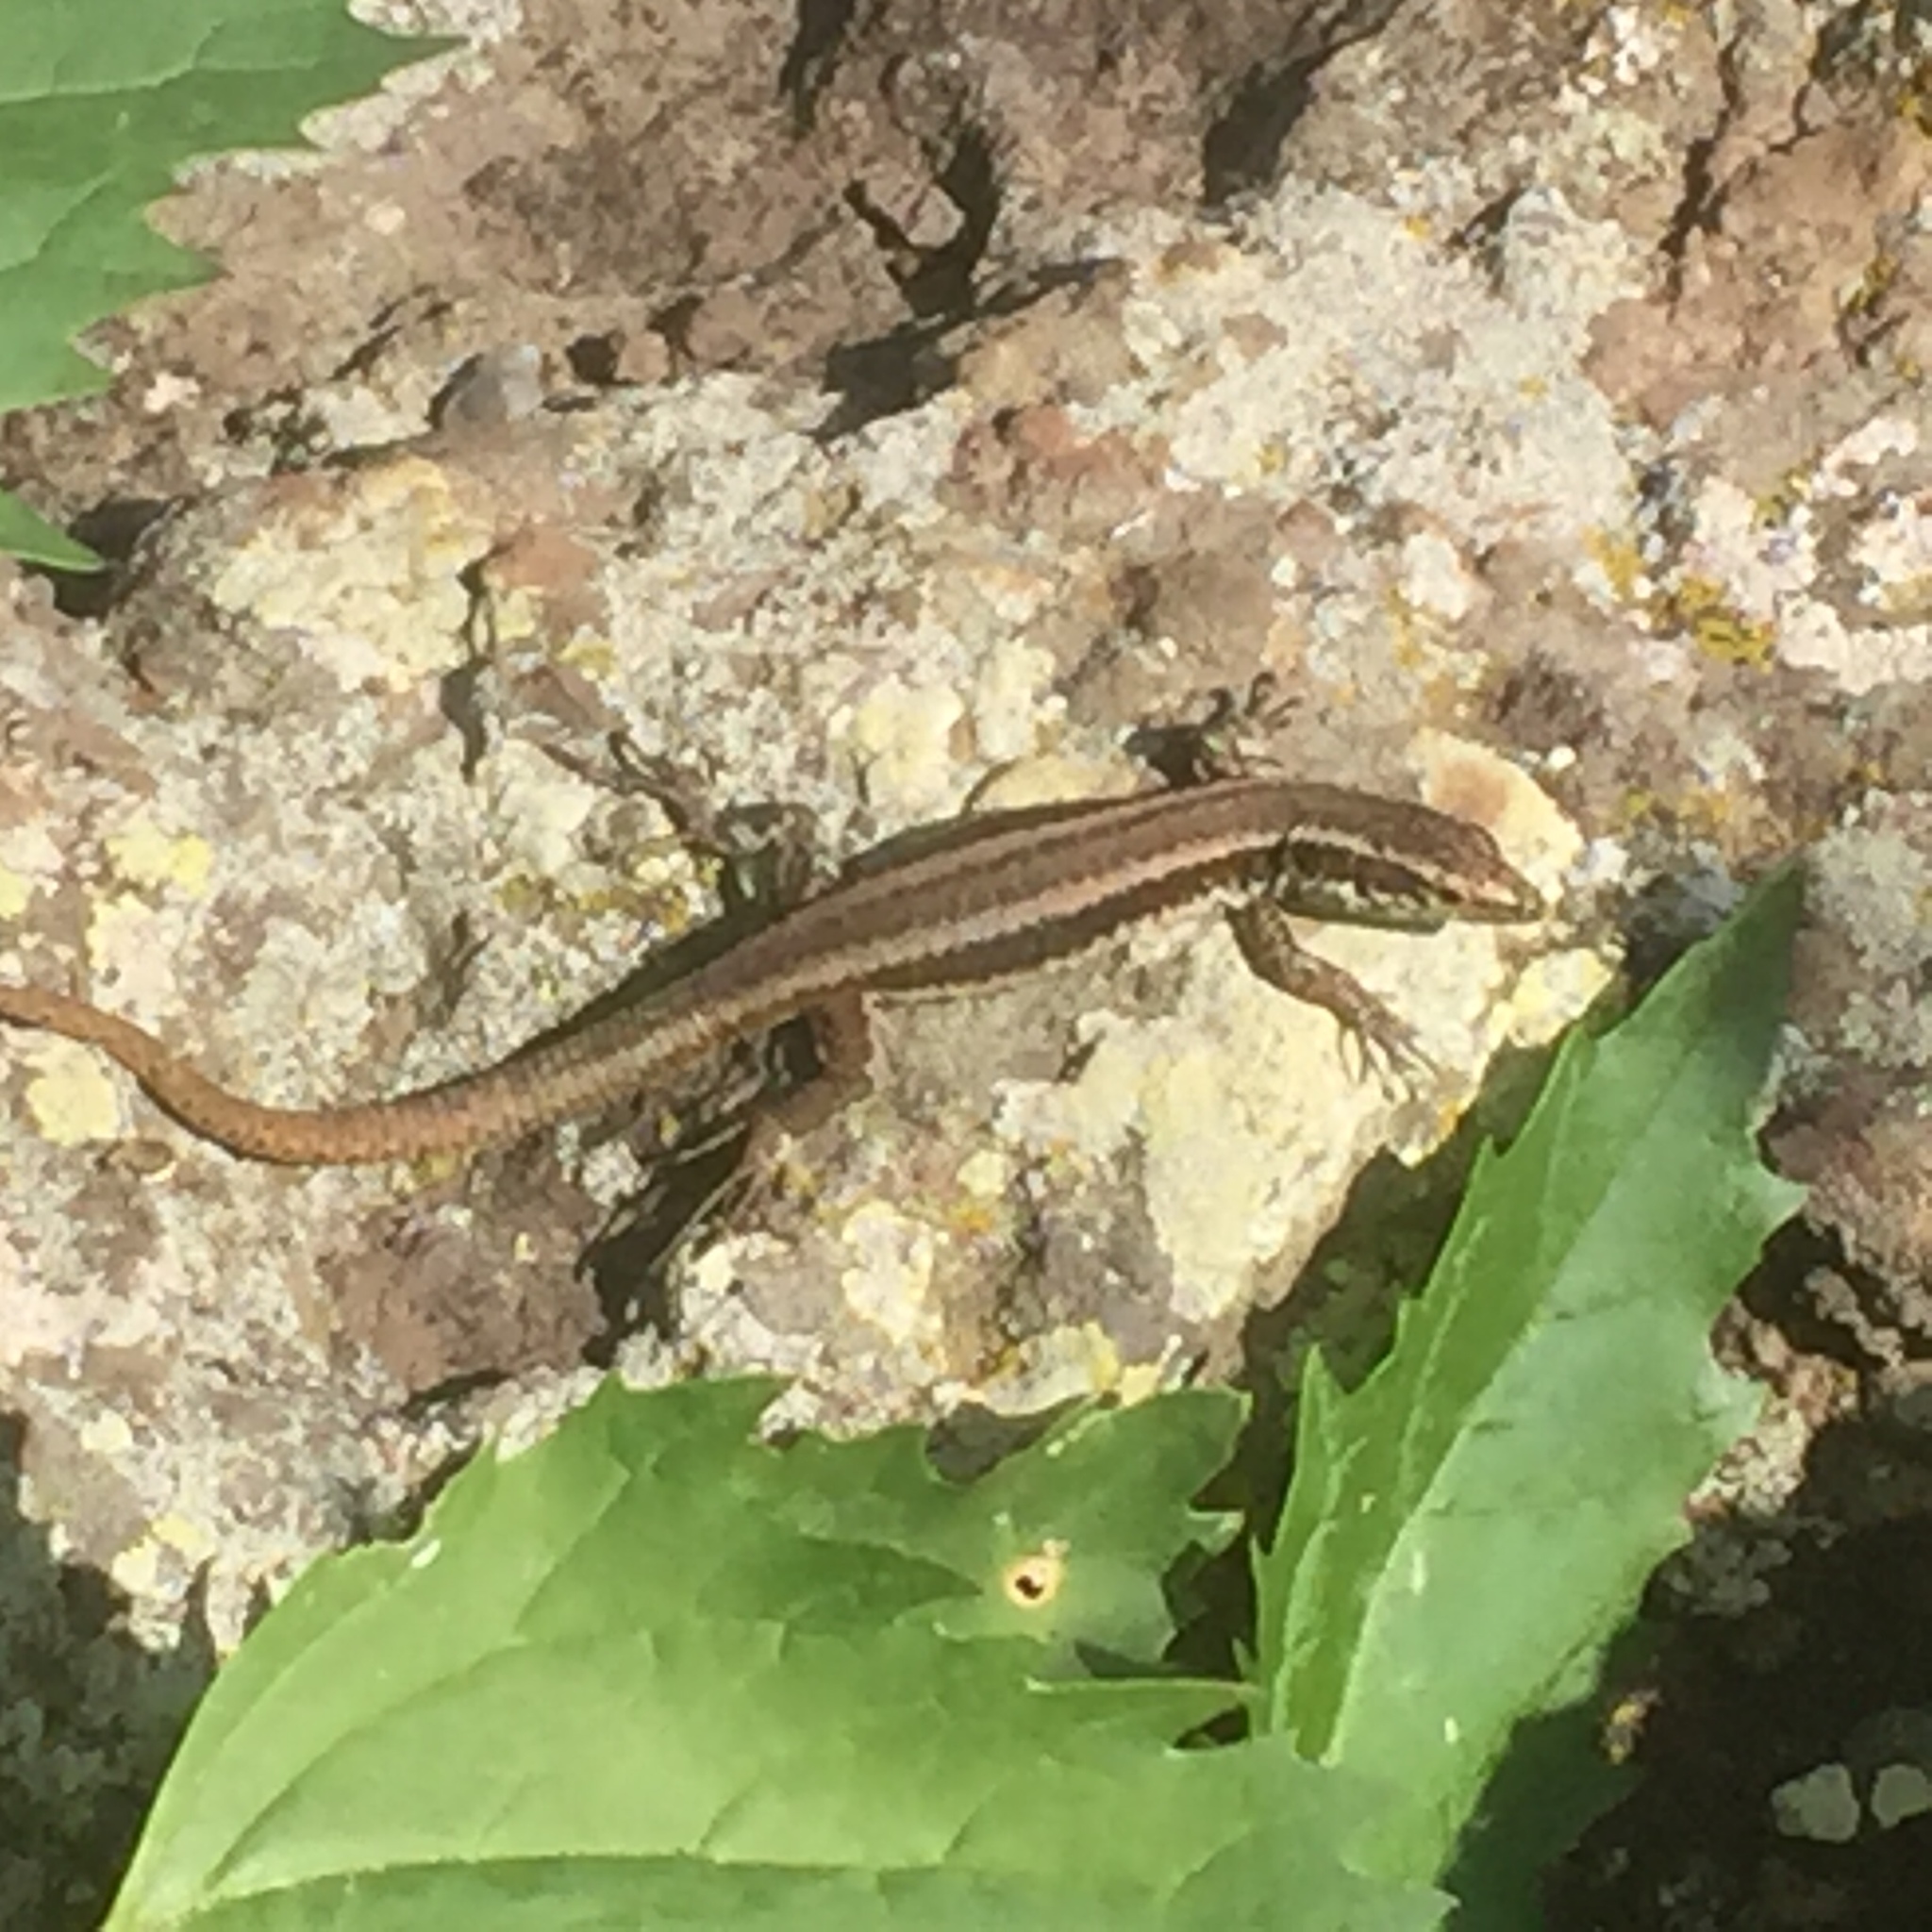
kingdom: Animalia
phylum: Chordata
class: Squamata
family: Lacertidae
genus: Teira
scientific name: Teira dugesii
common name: Madeira lizard
